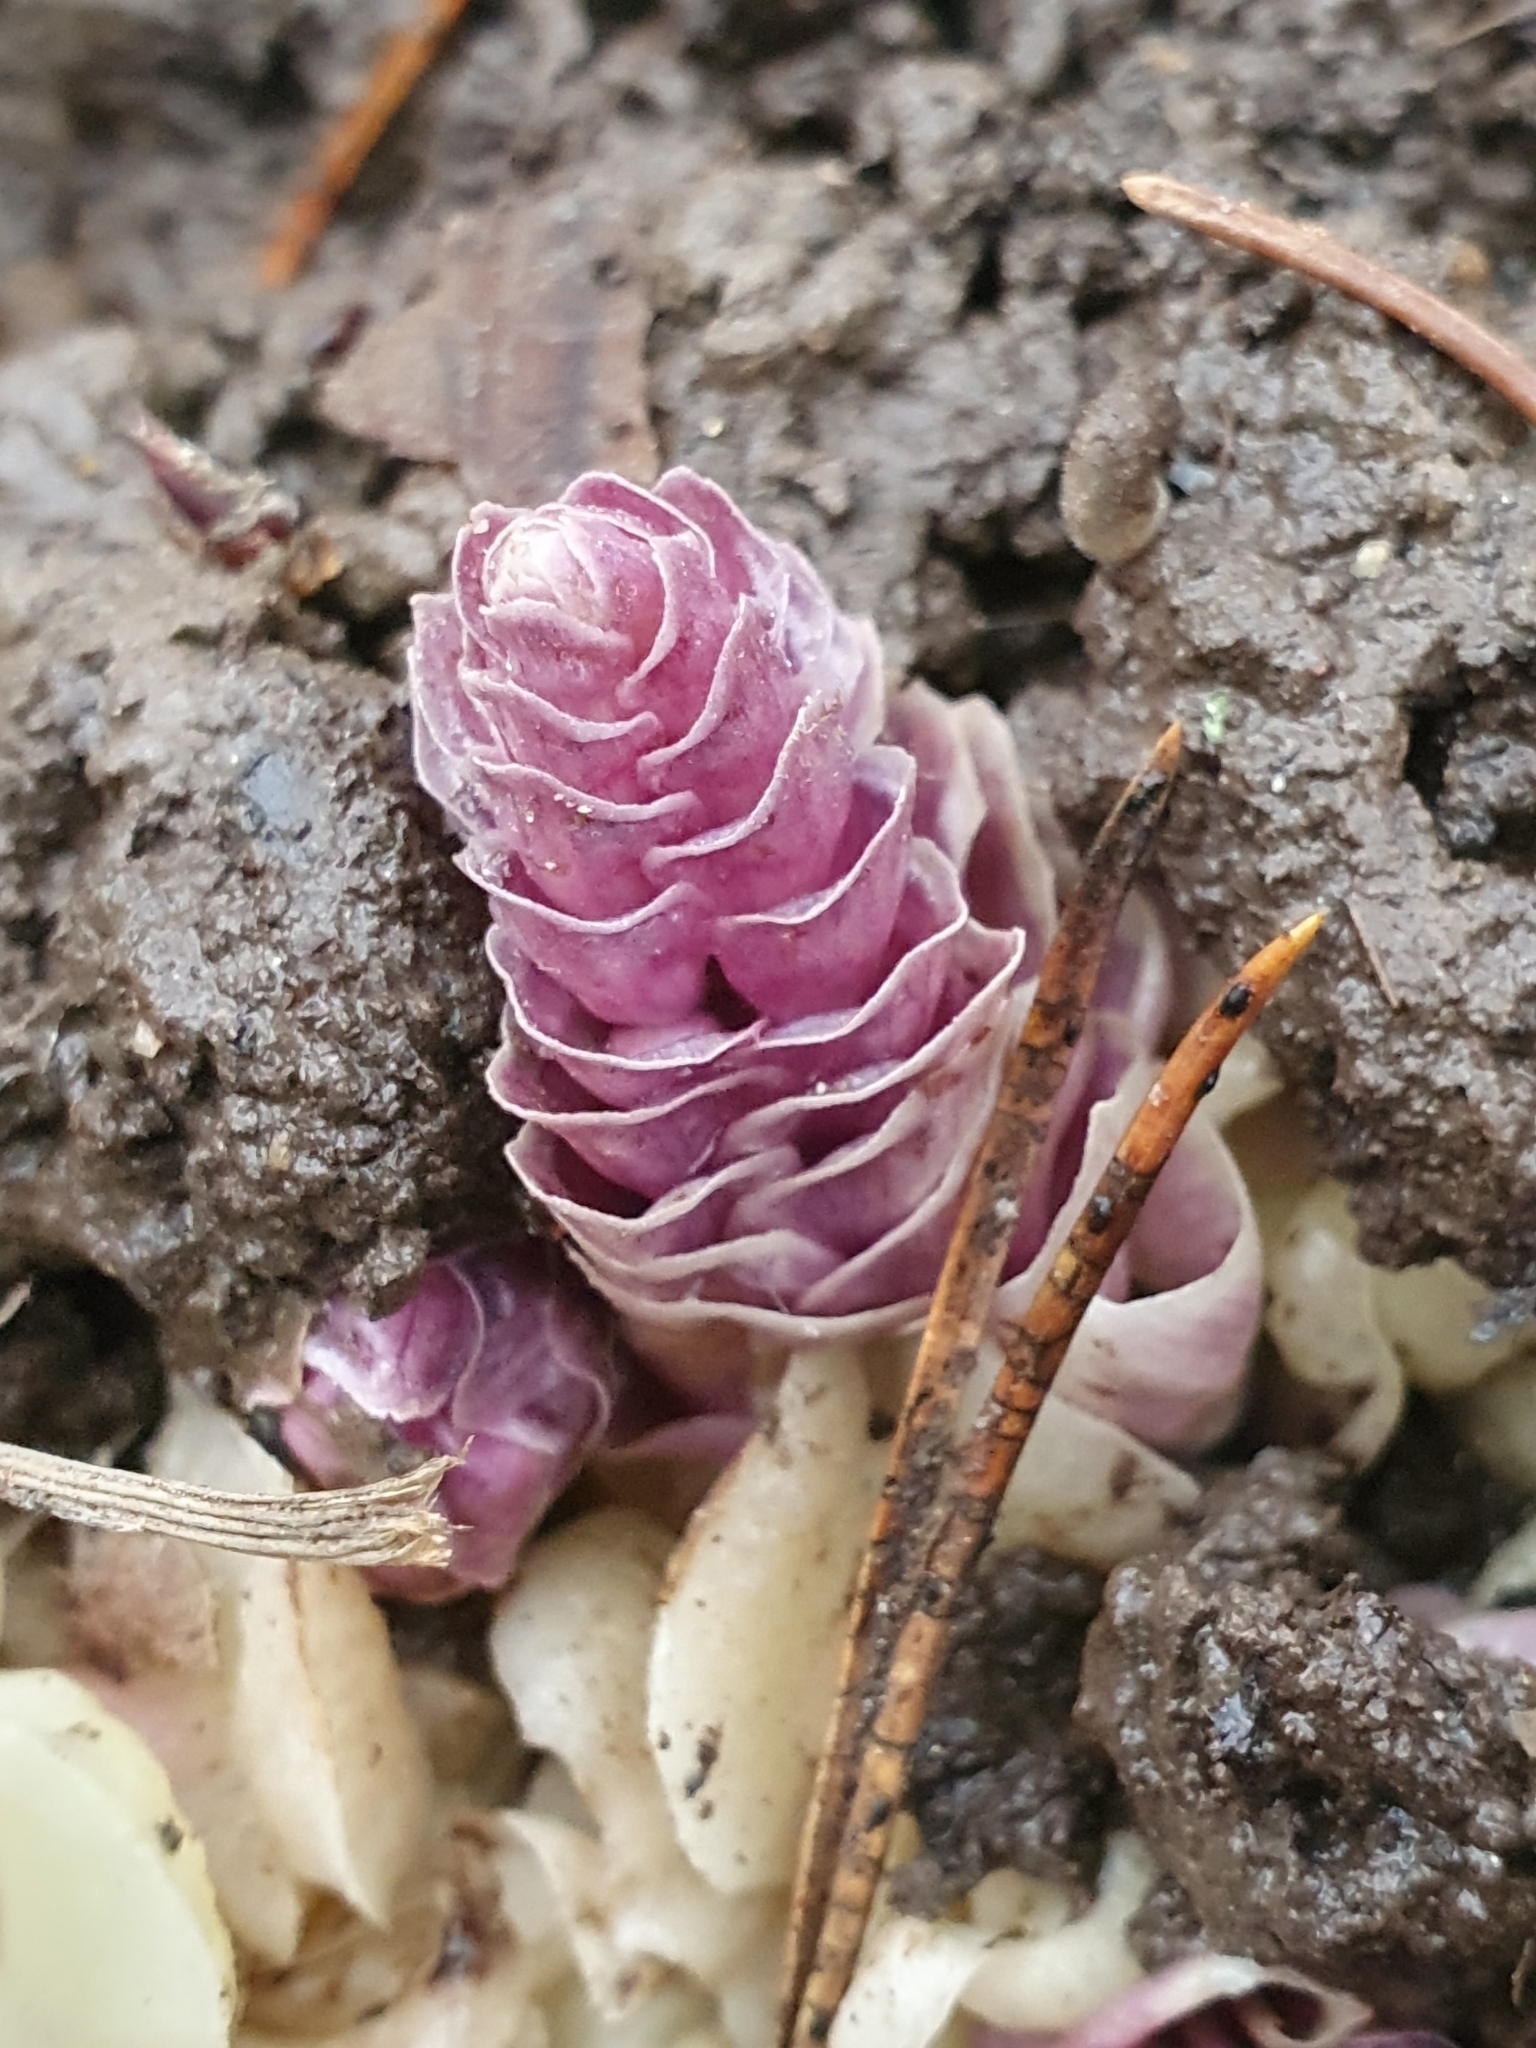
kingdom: Plantae
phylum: Tracheophyta
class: Magnoliopsida
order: Lamiales
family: Orobanchaceae
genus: Lathraea
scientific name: Lathraea squamaria
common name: Toothwort
